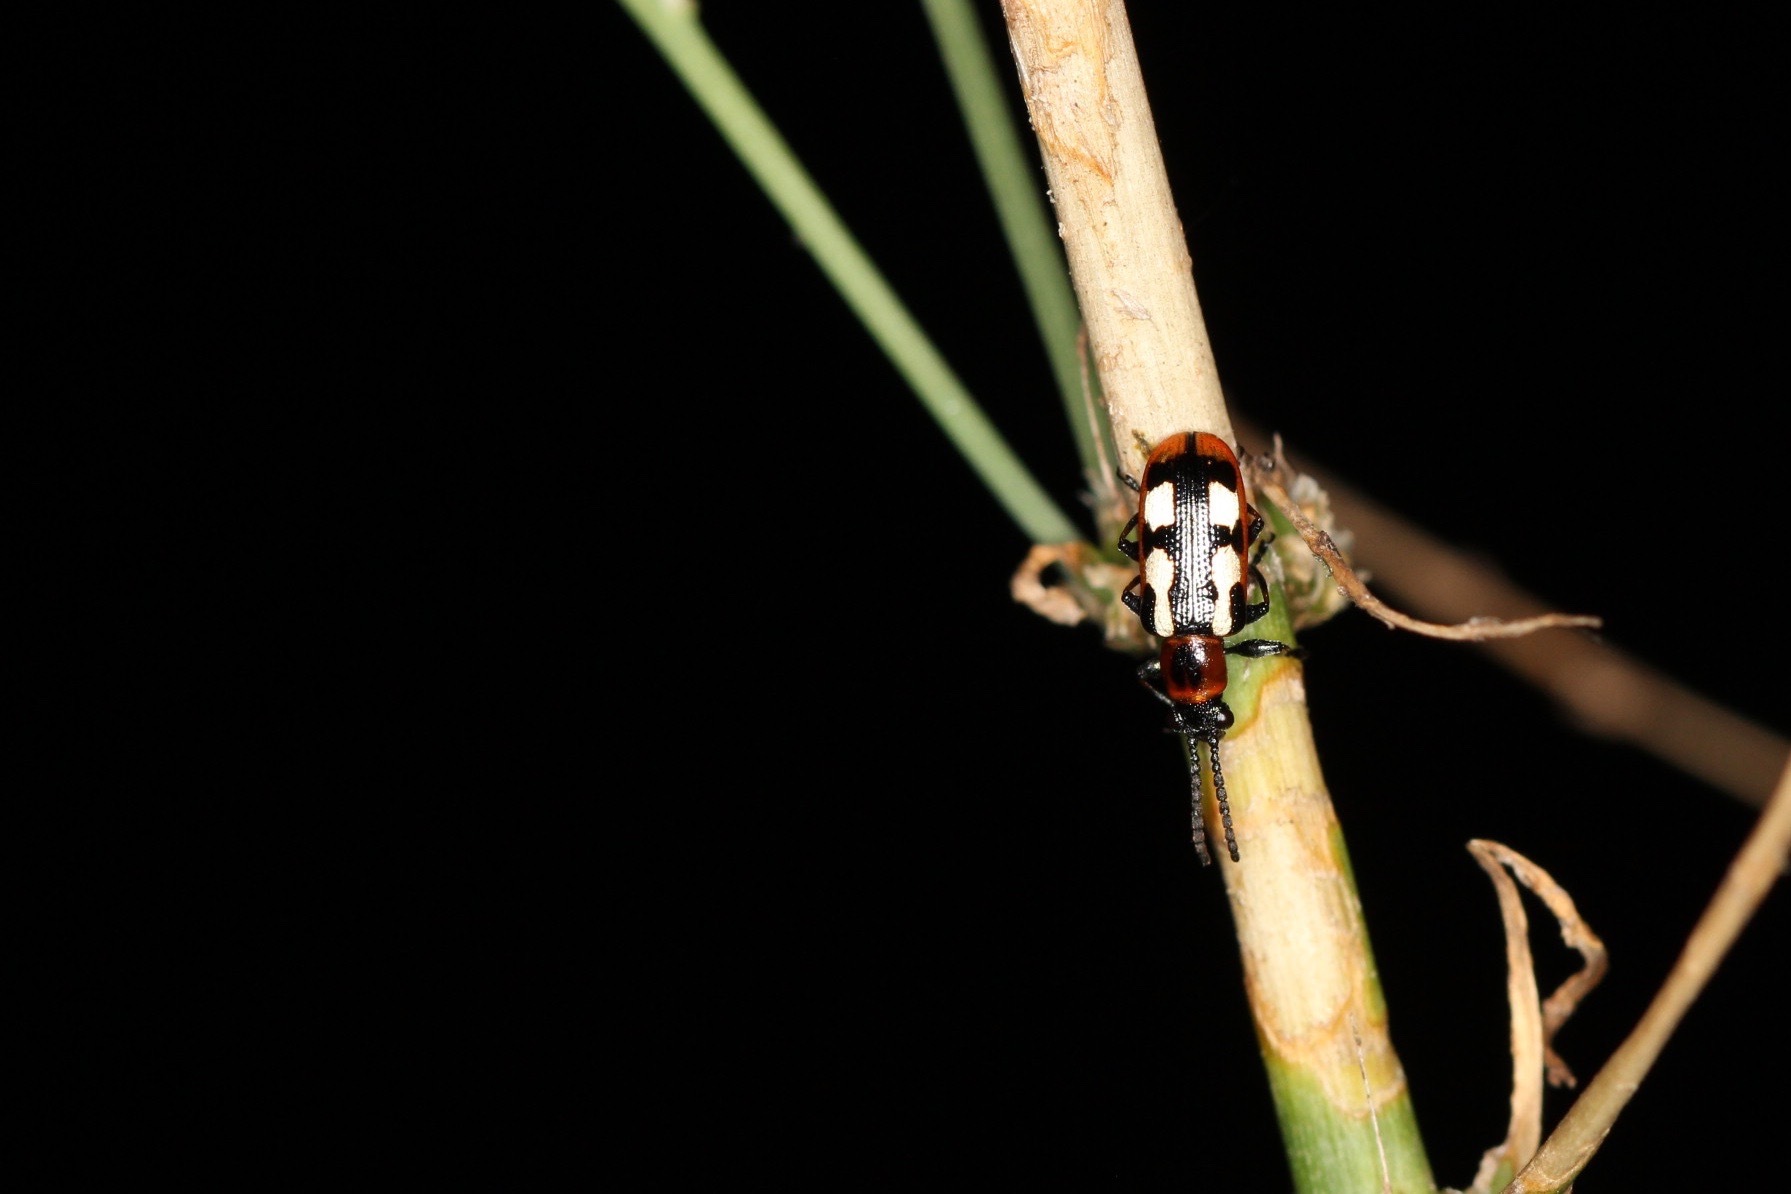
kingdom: Animalia
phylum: Arthropoda
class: Insecta
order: Coleoptera
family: Chrysomelidae
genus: Crioceris
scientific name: Crioceris asparagi
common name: Asparagus beetle
